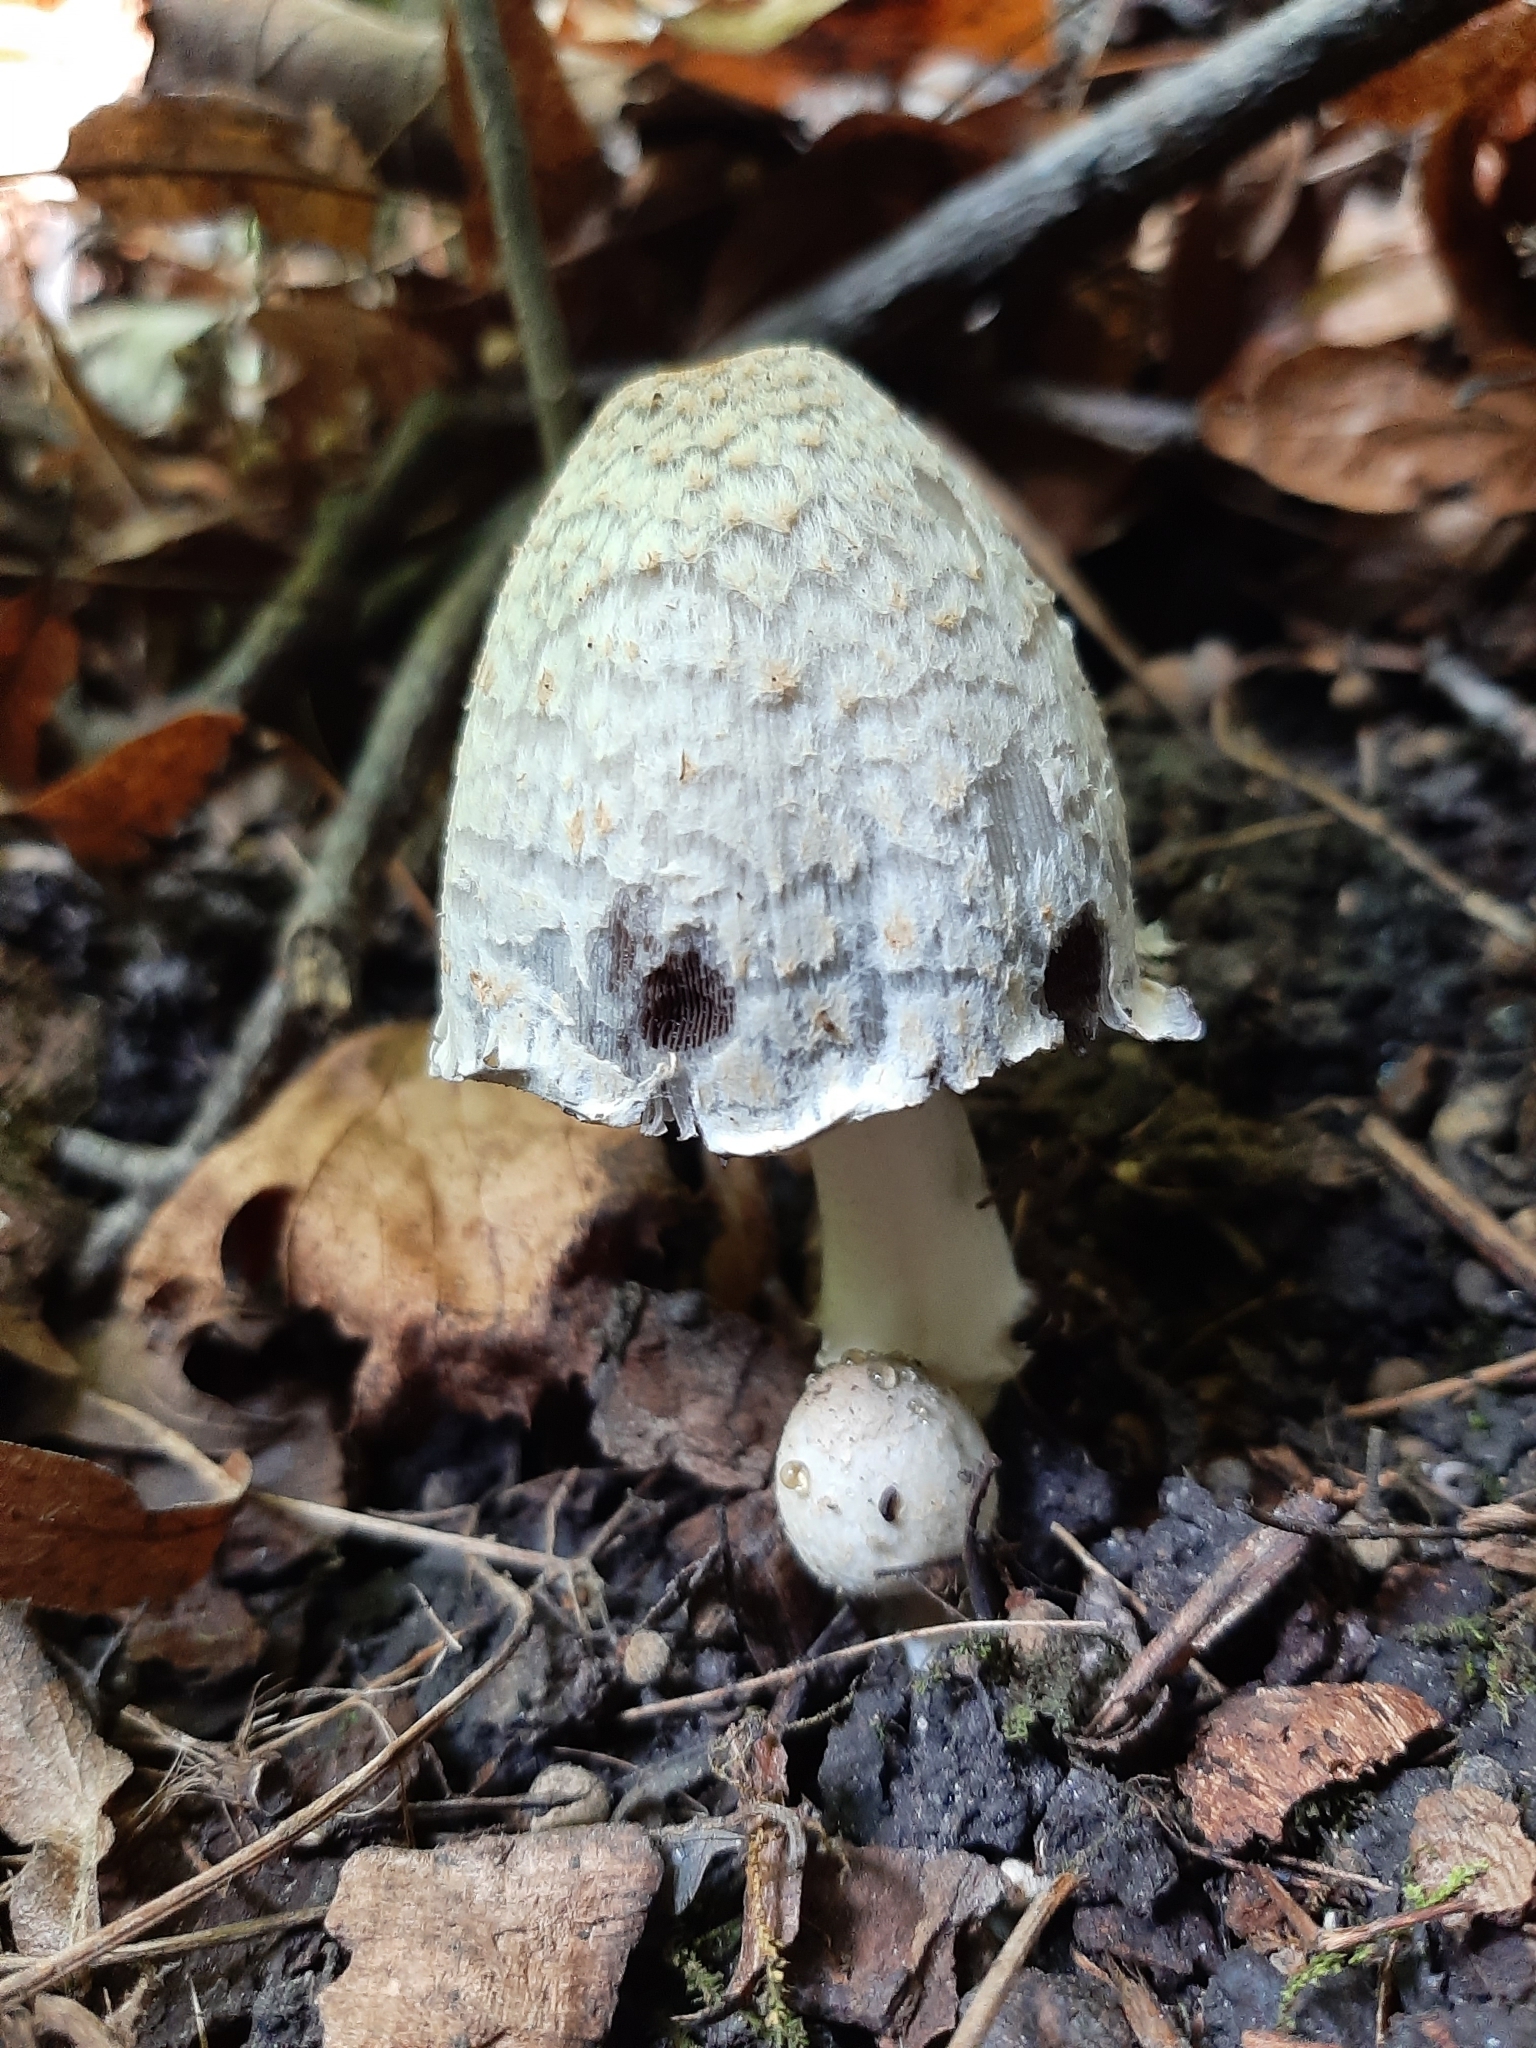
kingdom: Fungi
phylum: Basidiomycota
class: Agaricomycetes
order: Agaricales
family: Psathyrellaceae
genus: Coprinopsis
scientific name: Coprinopsis variegata
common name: Scaly ink cap
